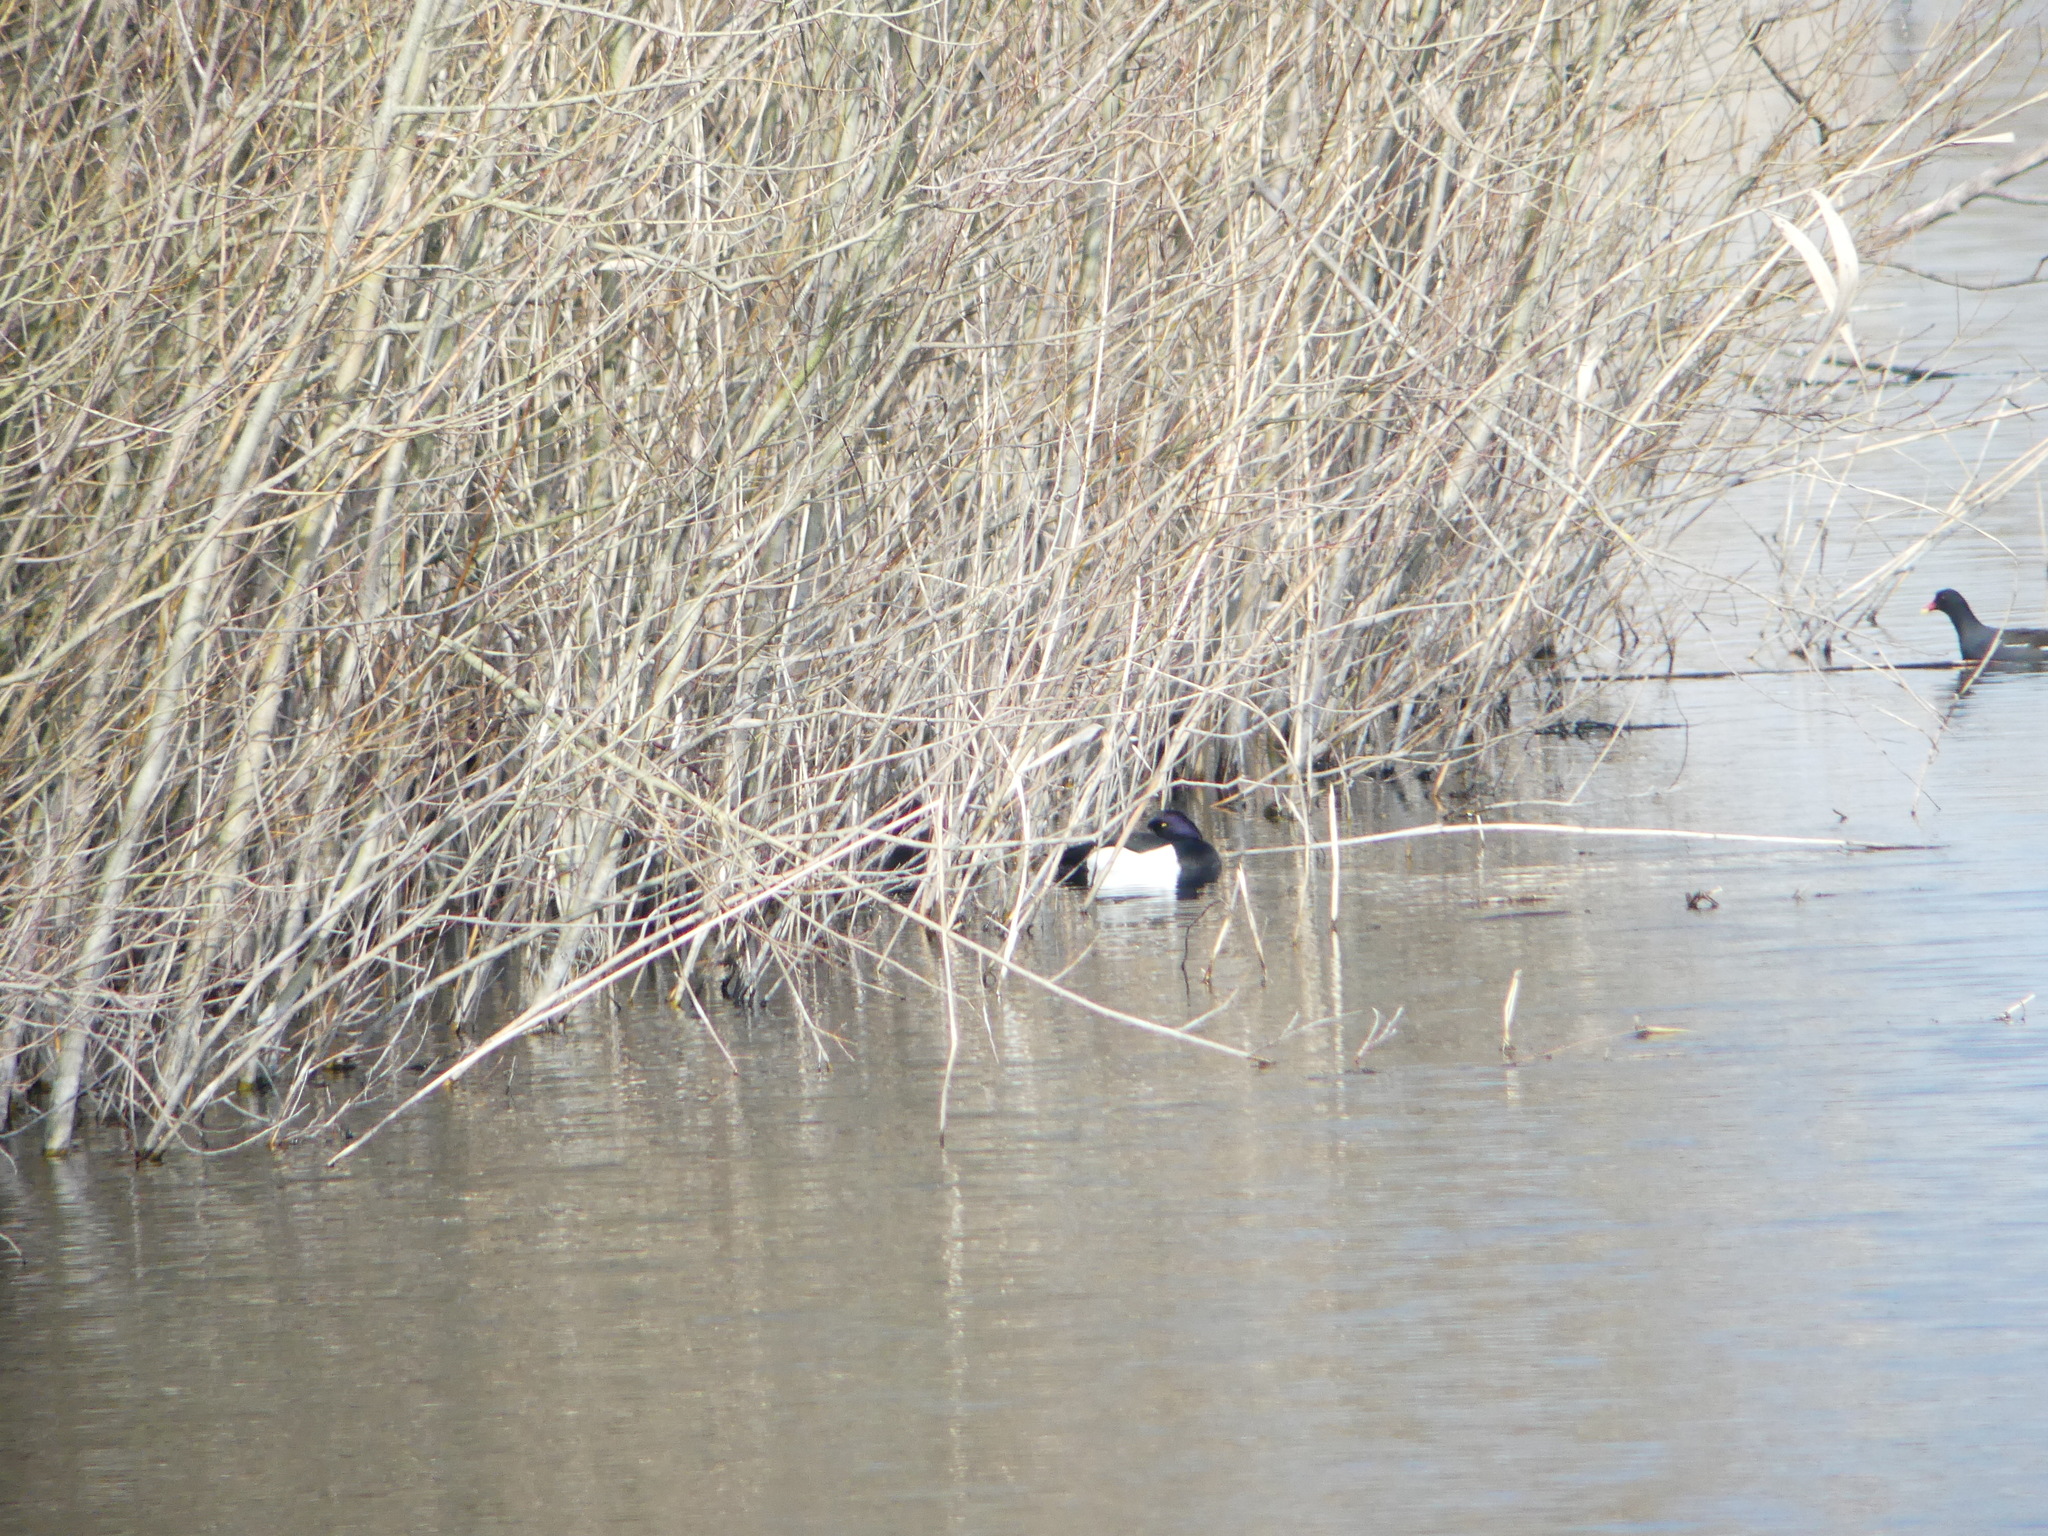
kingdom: Animalia
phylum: Chordata
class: Aves
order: Anseriformes
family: Anatidae
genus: Aythya
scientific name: Aythya fuligula
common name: Tufted duck
